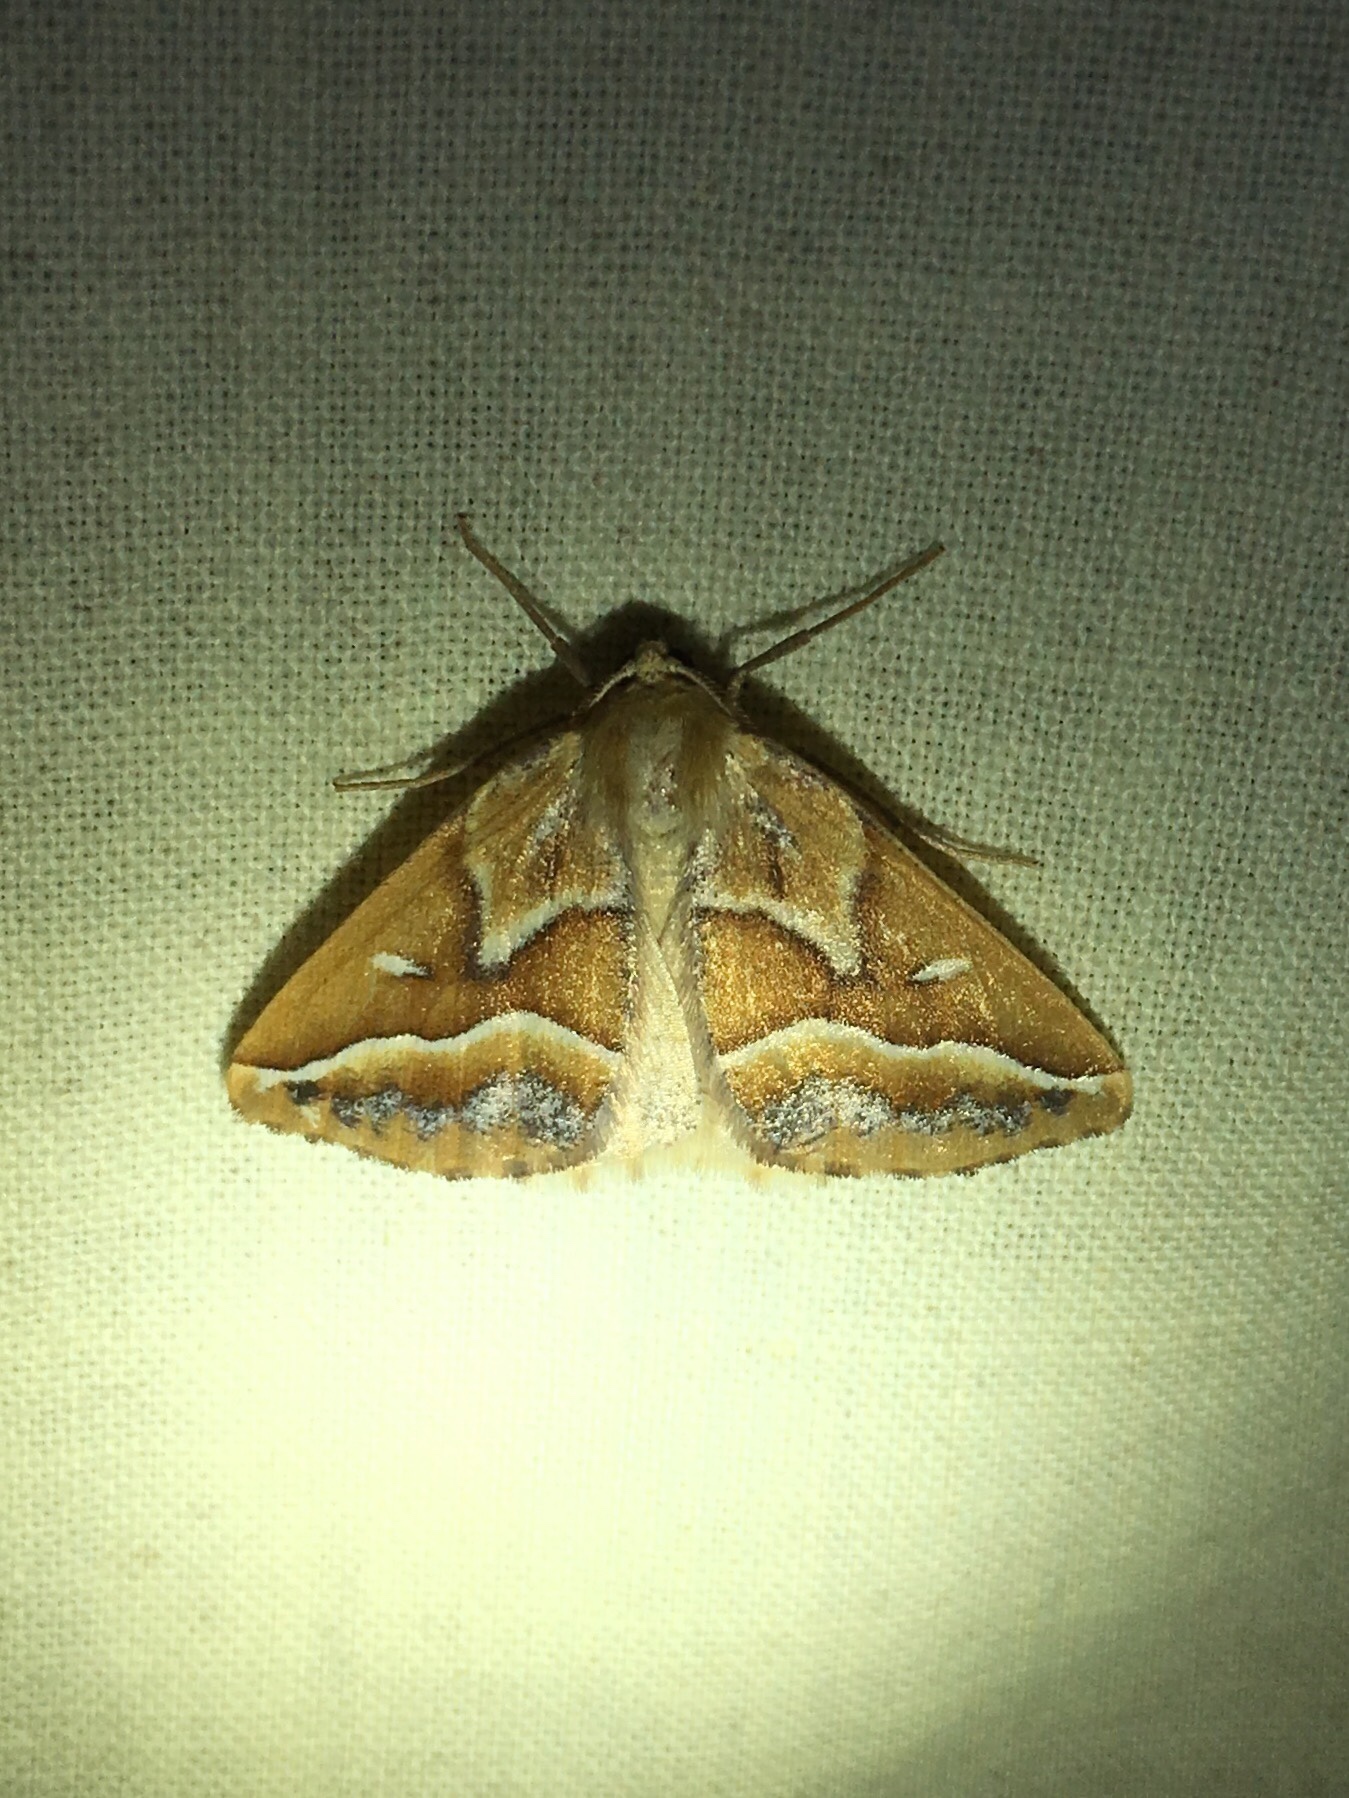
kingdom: Animalia
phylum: Arthropoda
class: Insecta
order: Lepidoptera
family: Geometridae
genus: Caripeta
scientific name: Caripeta angustiorata
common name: Brown pine looper
